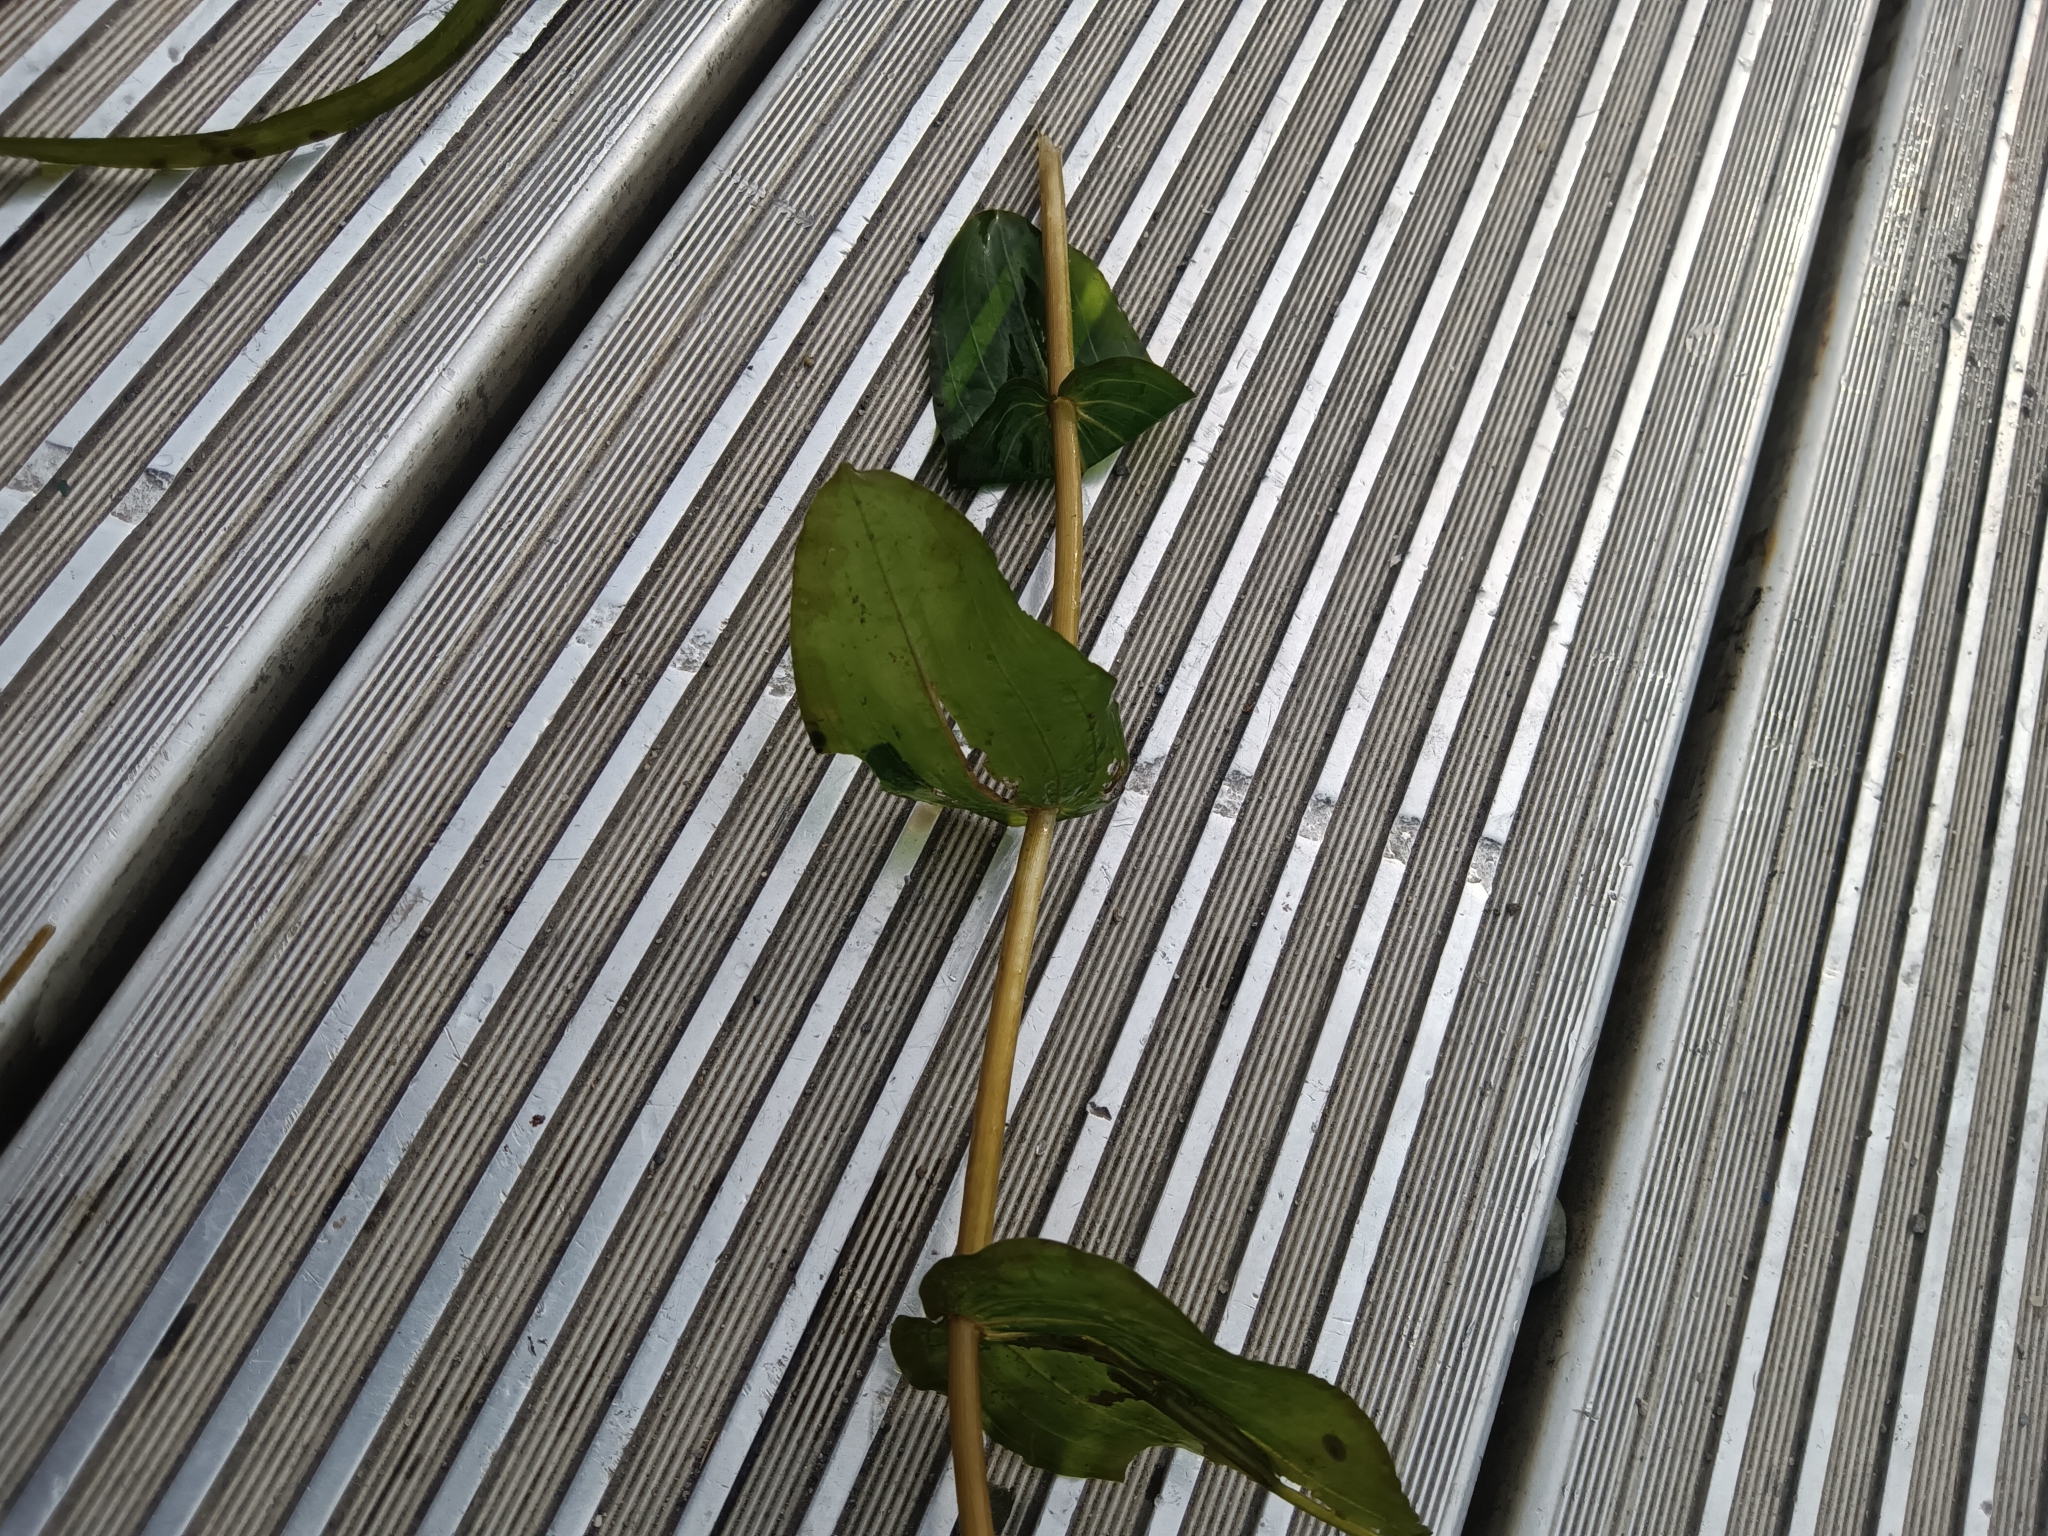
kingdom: Plantae
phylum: Tracheophyta
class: Liliopsida
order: Alismatales
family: Potamogetonaceae
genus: Potamogeton
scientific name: Potamogeton perfoliatus
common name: Perfoliate pondweed
